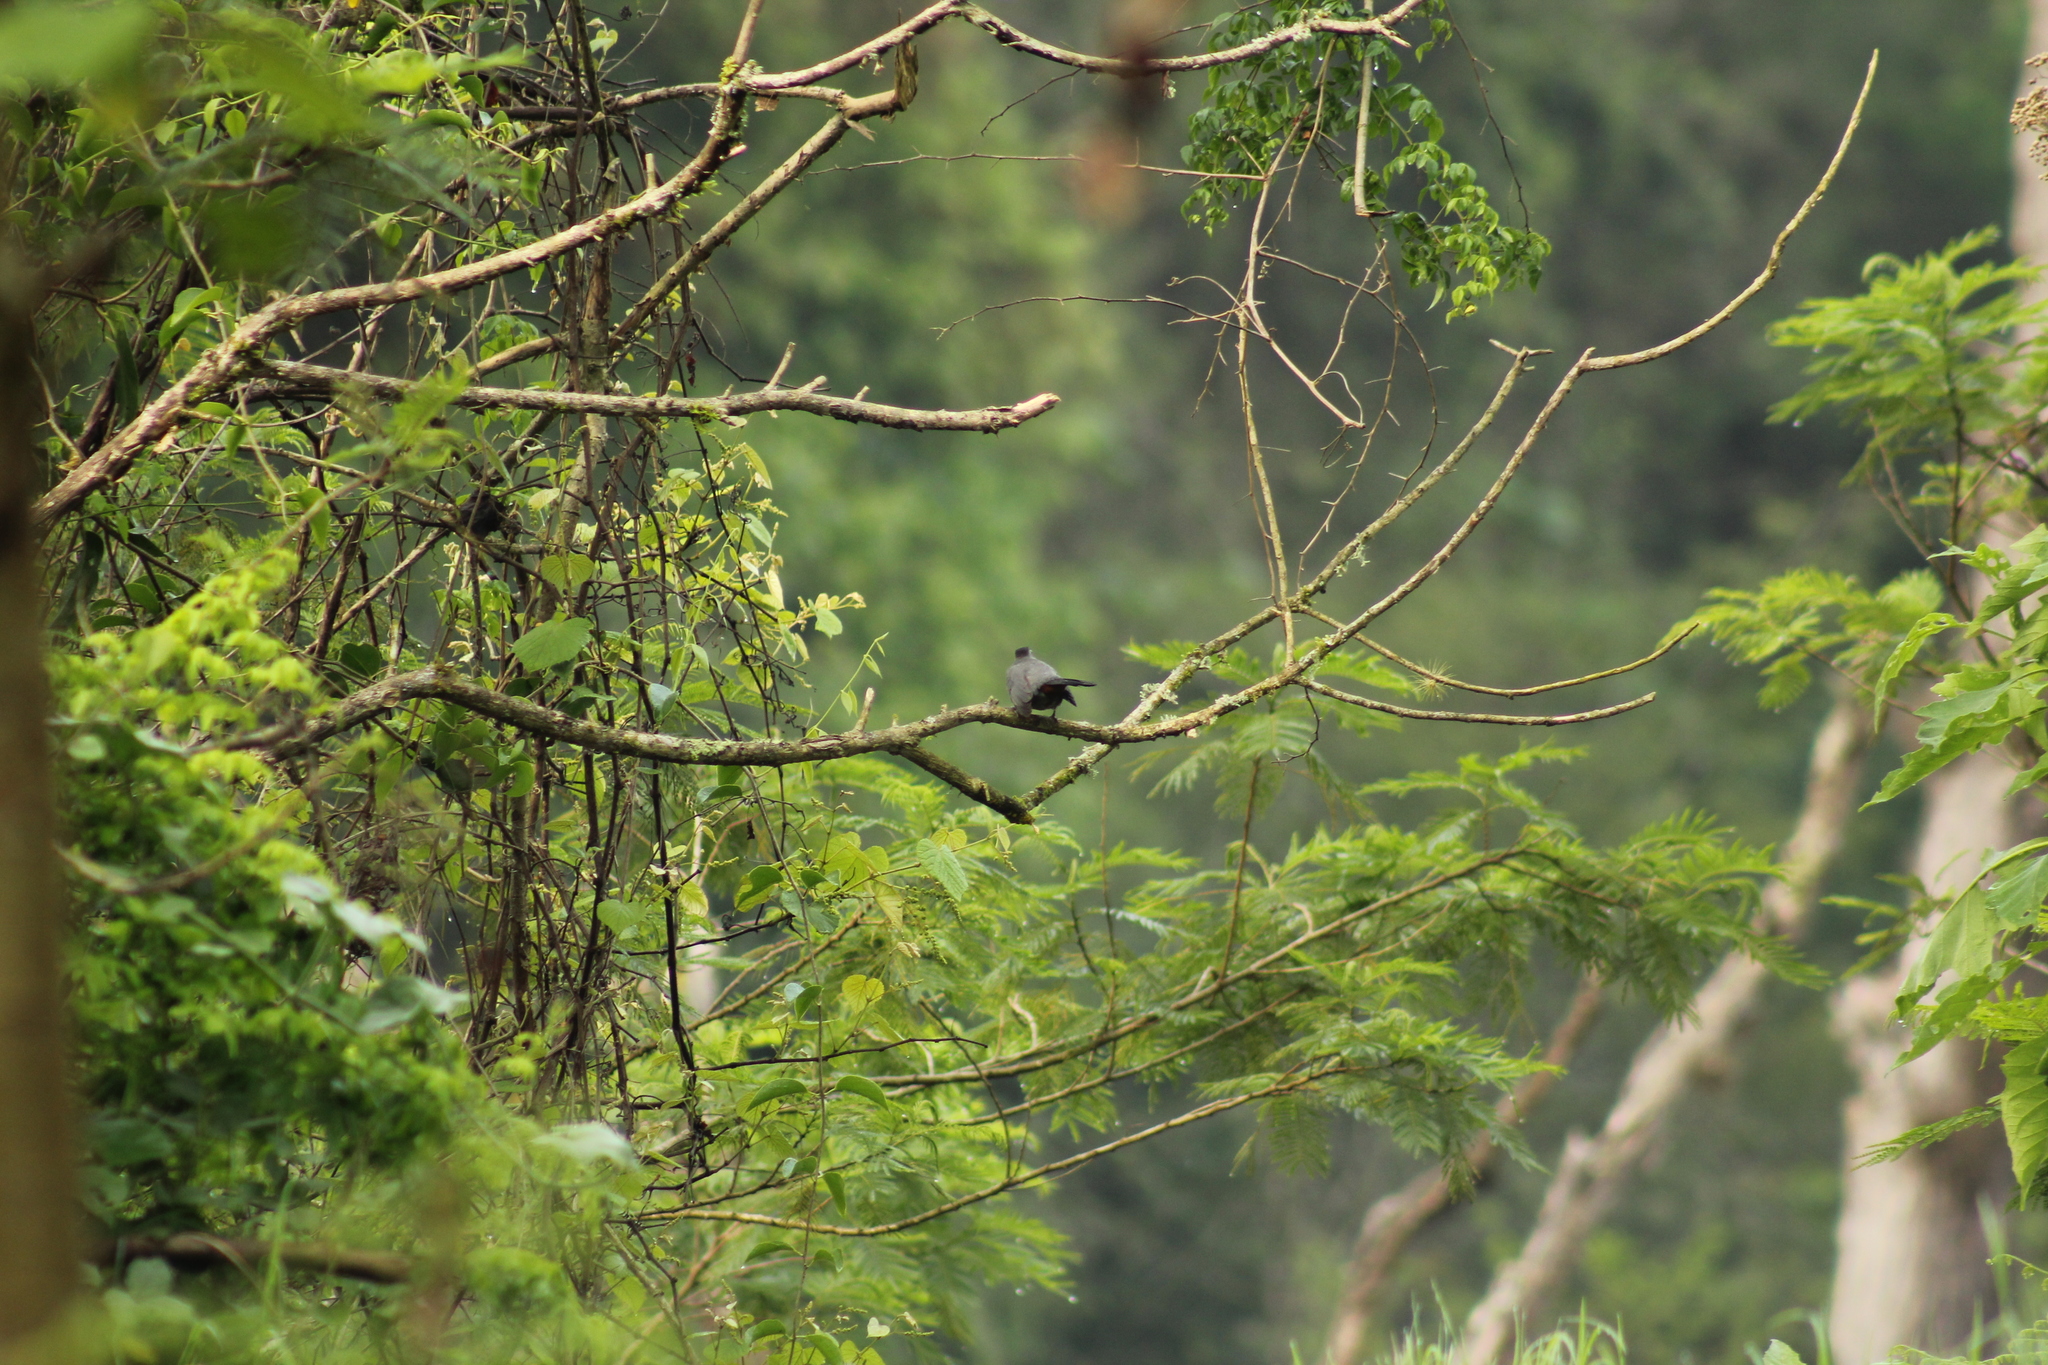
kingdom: Animalia
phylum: Chordata
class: Aves
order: Passeriformes
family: Mimidae
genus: Dumetella
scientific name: Dumetella carolinensis
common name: Gray catbird
